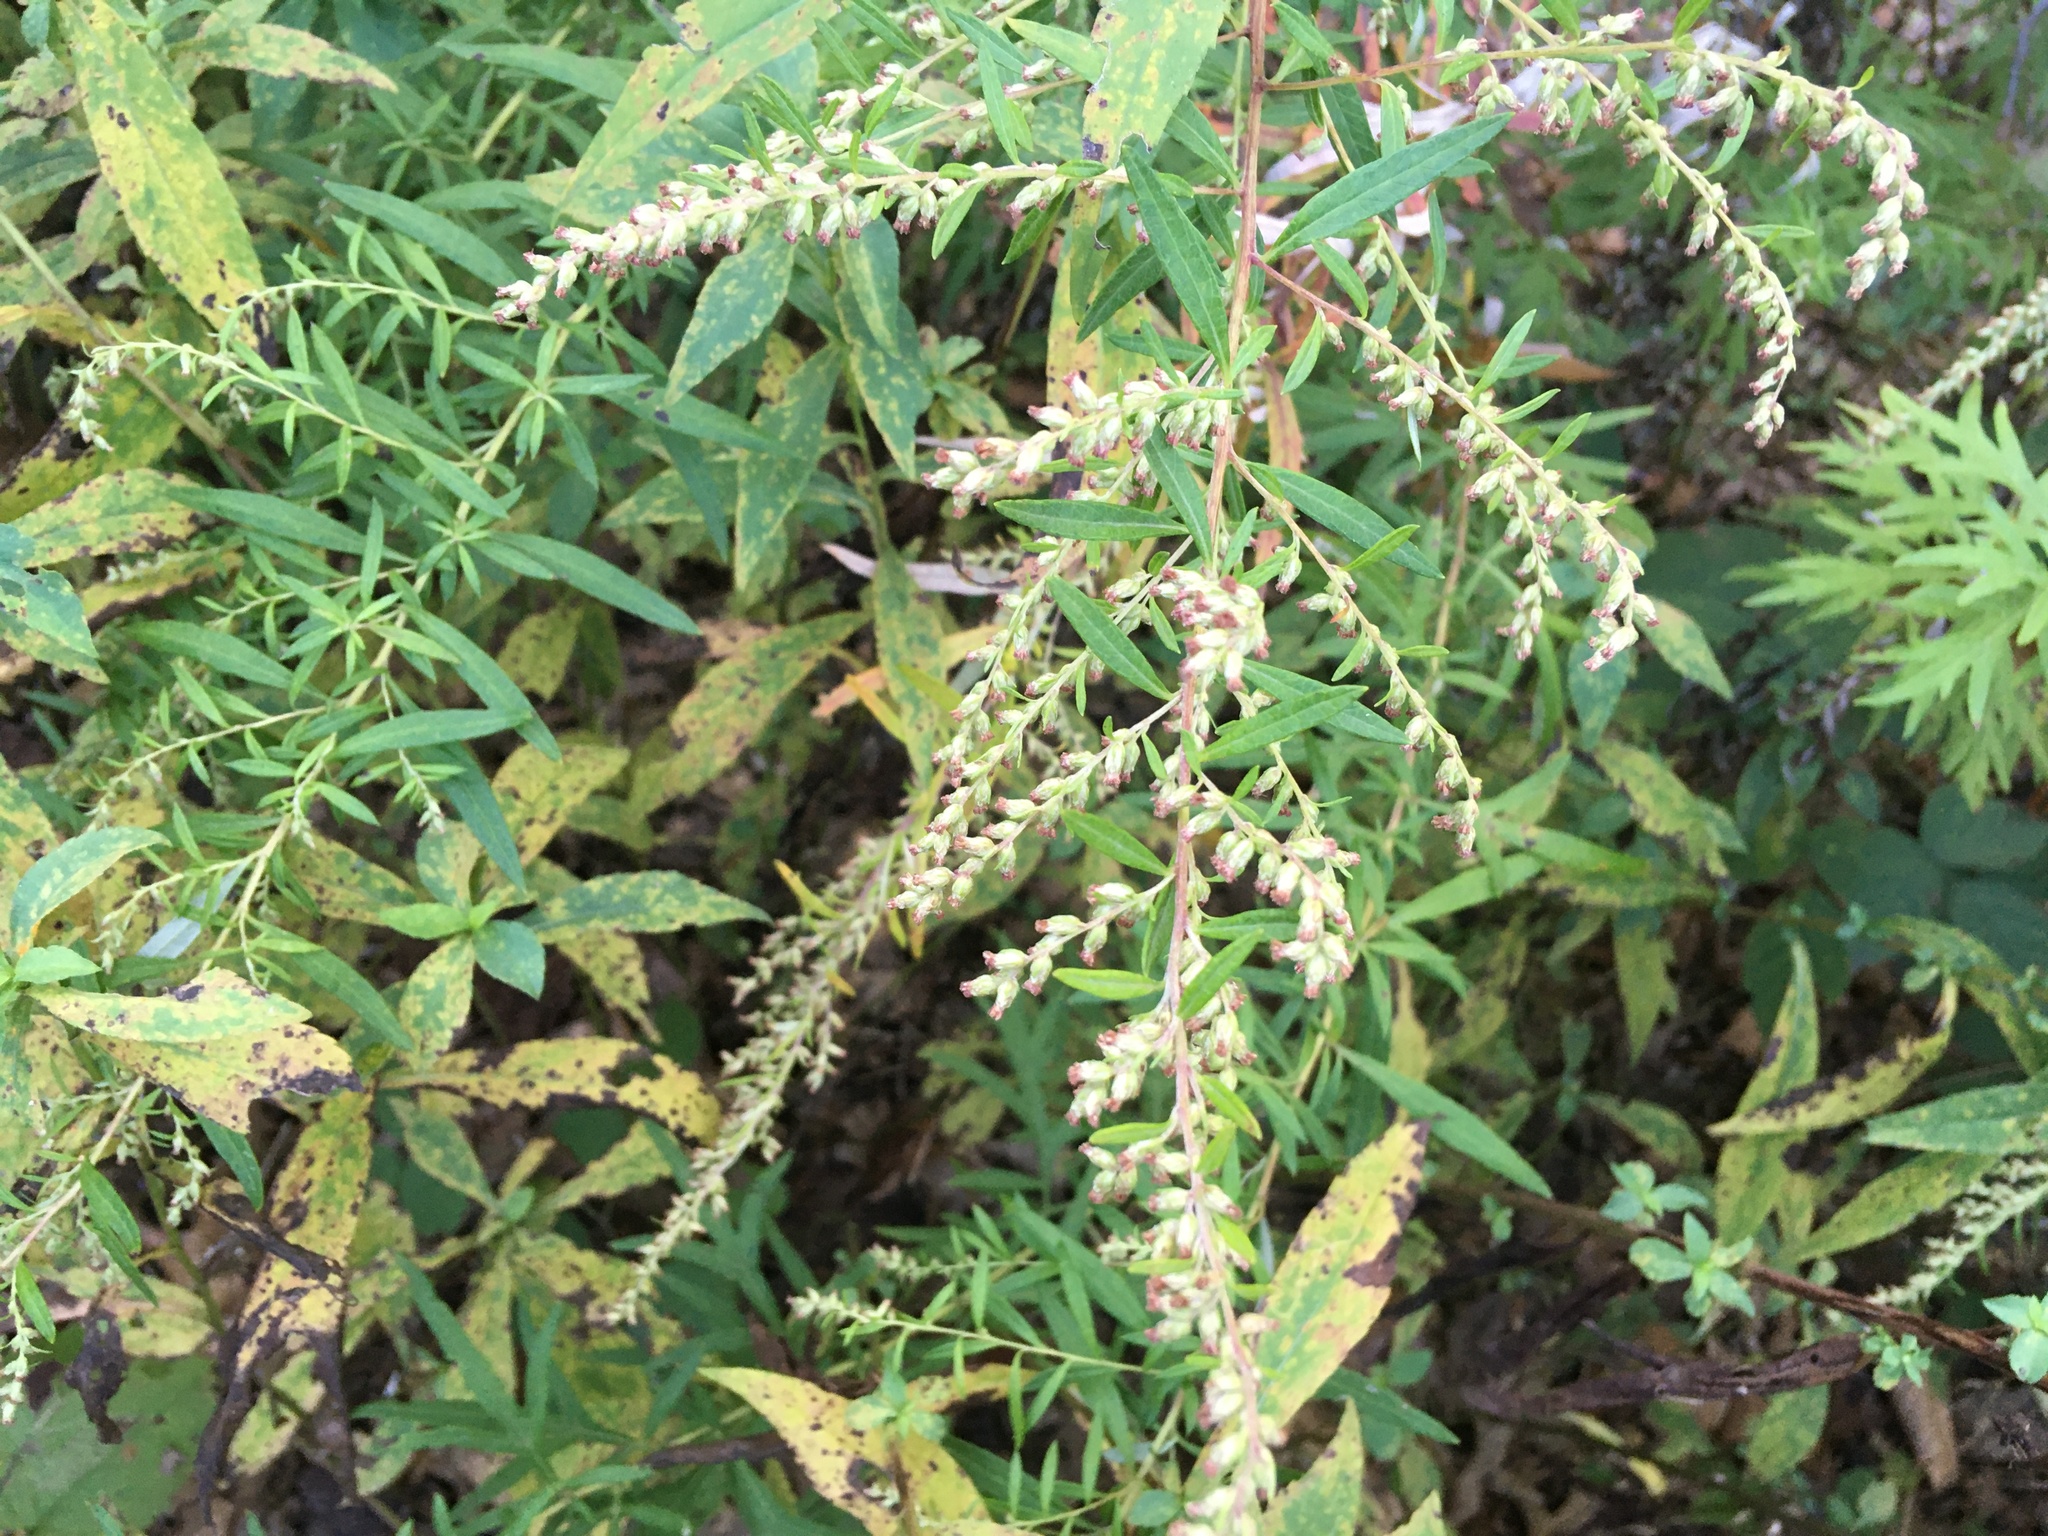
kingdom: Plantae
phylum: Tracheophyta
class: Magnoliopsida
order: Asterales
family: Asteraceae
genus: Artemisia
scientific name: Artemisia vulgaris
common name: Mugwort
